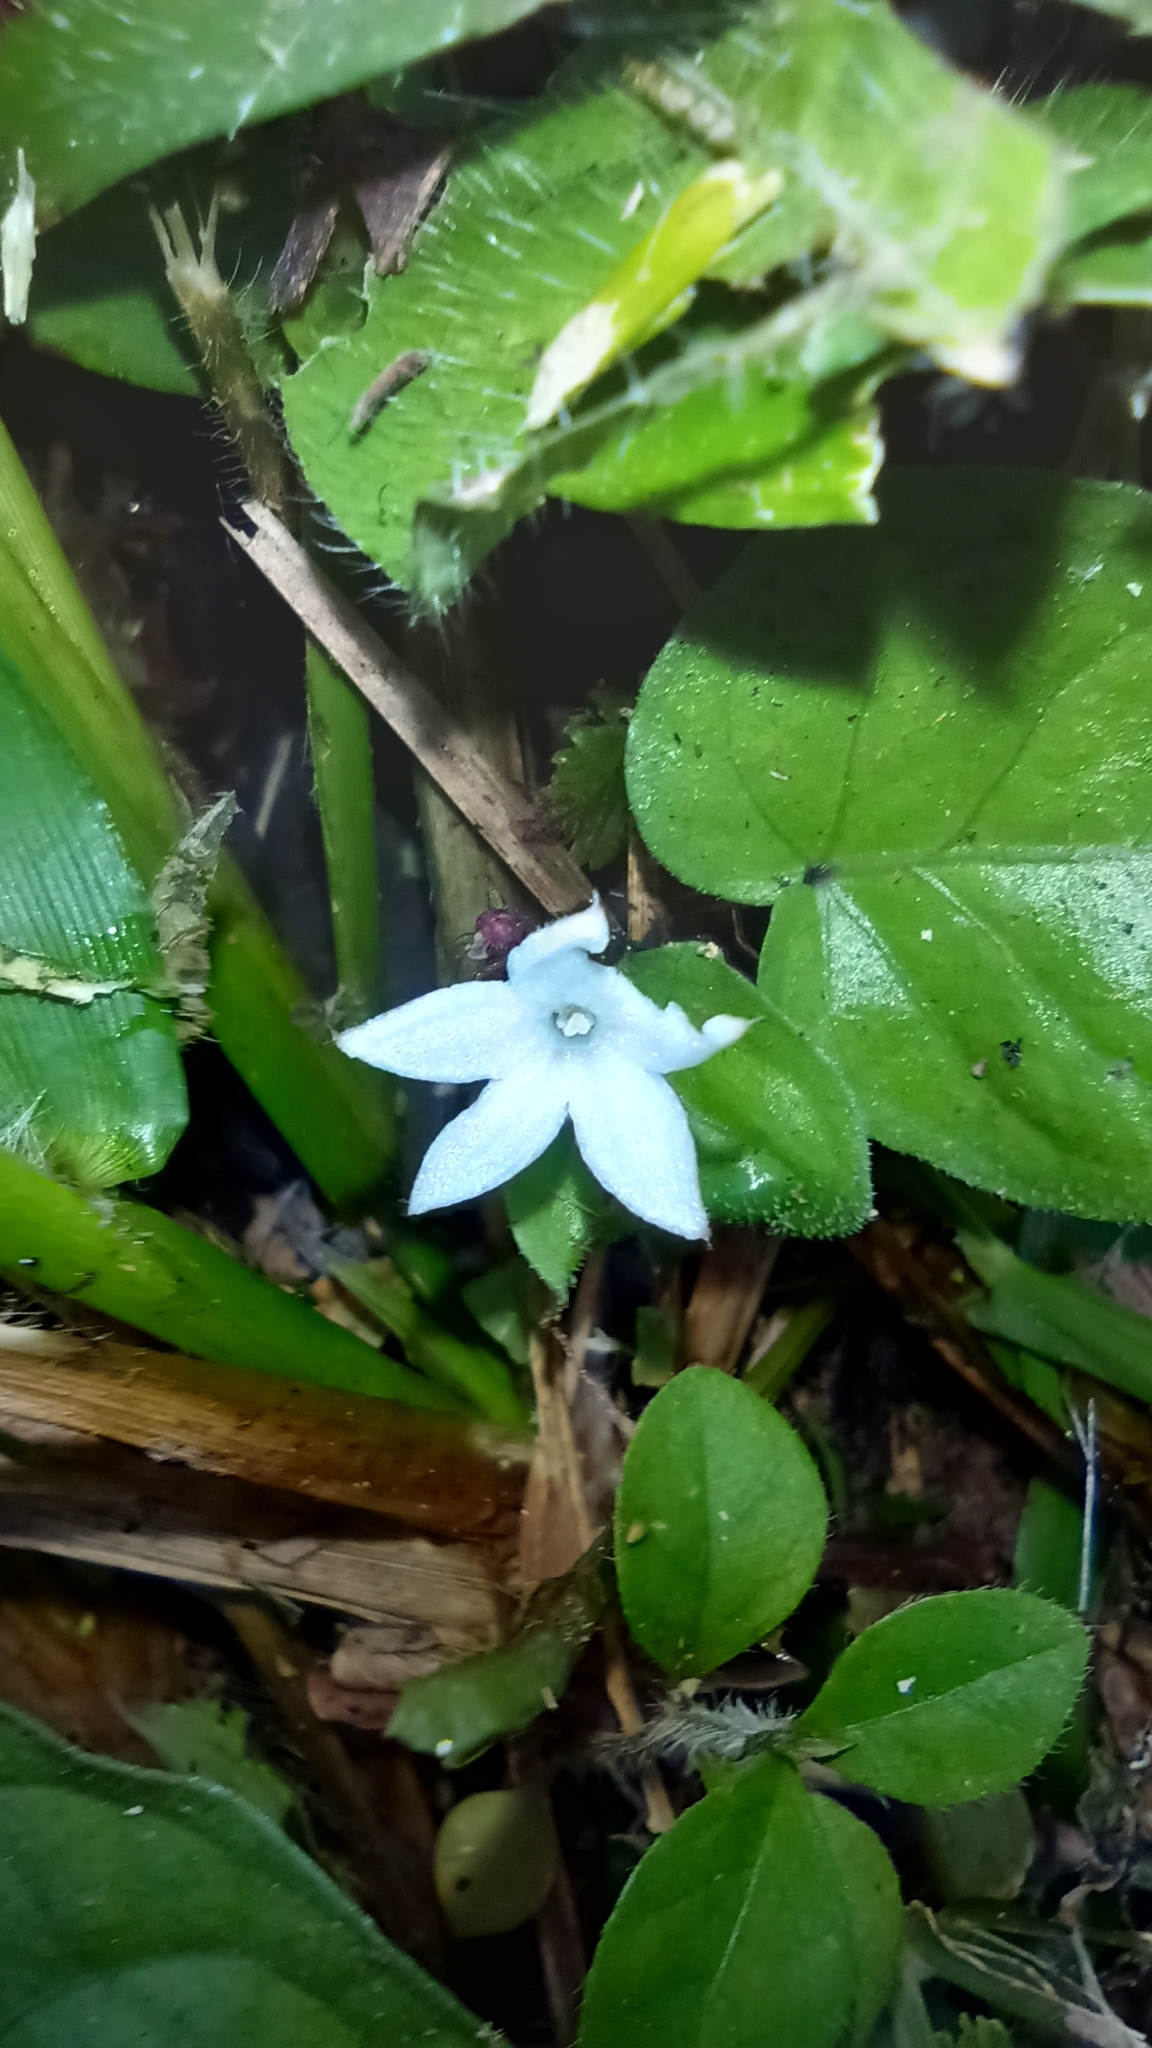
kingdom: Plantae
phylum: Tracheophyta
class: Magnoliopsida
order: Gentianales
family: Rubiaceae
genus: Geophila
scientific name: Geophila repens
